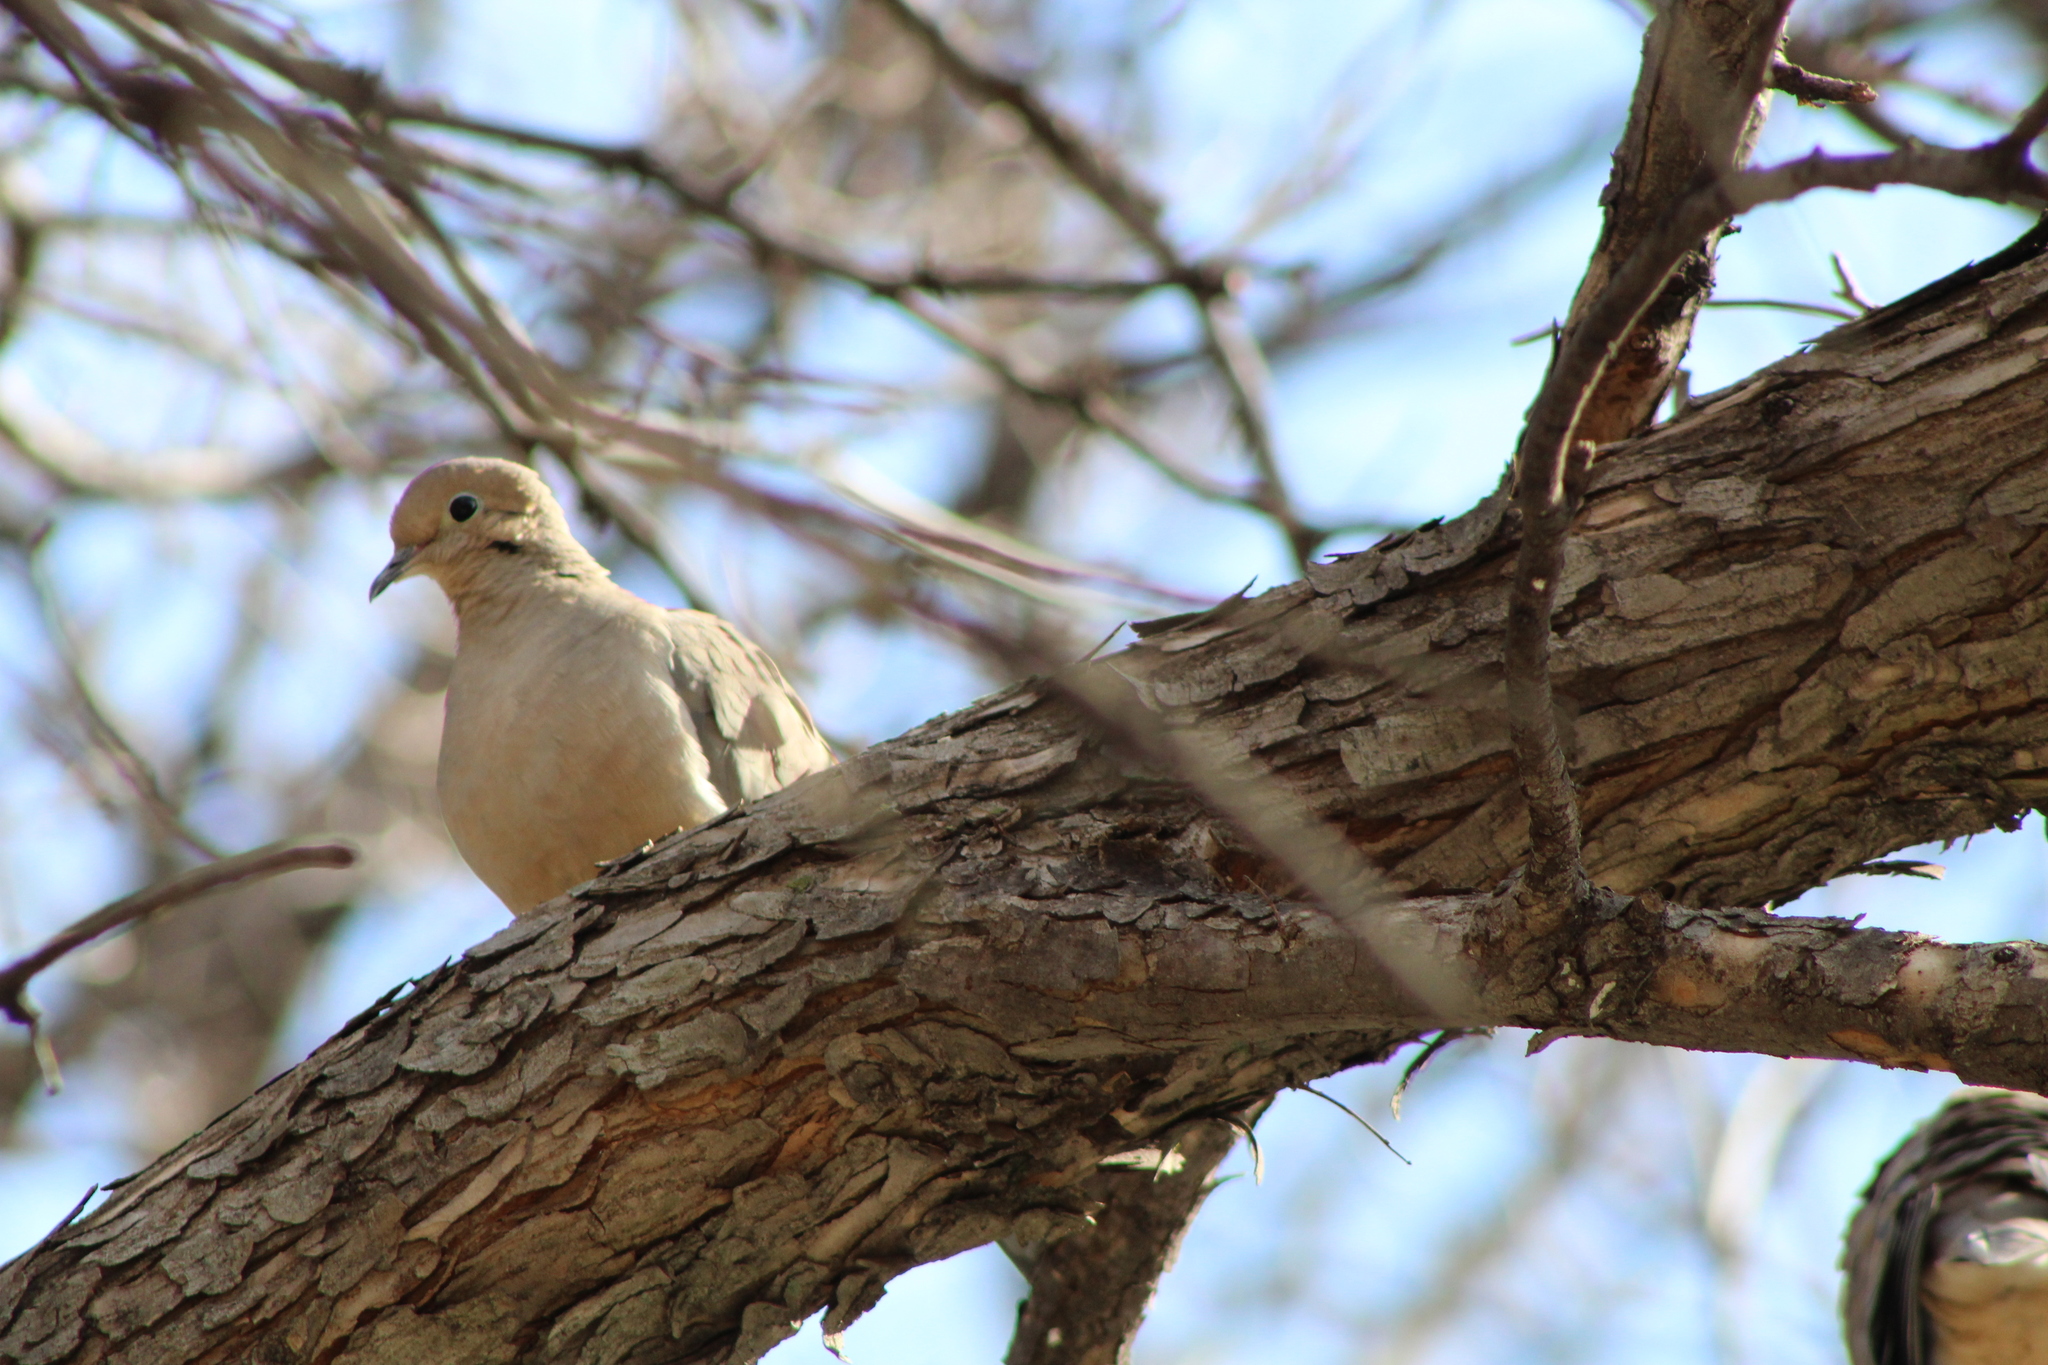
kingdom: Animalia
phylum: Chordata
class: Aves
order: Columbiformes
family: Columbidae
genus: Zenaida
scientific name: Zenaida macroura
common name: Mourning dove
